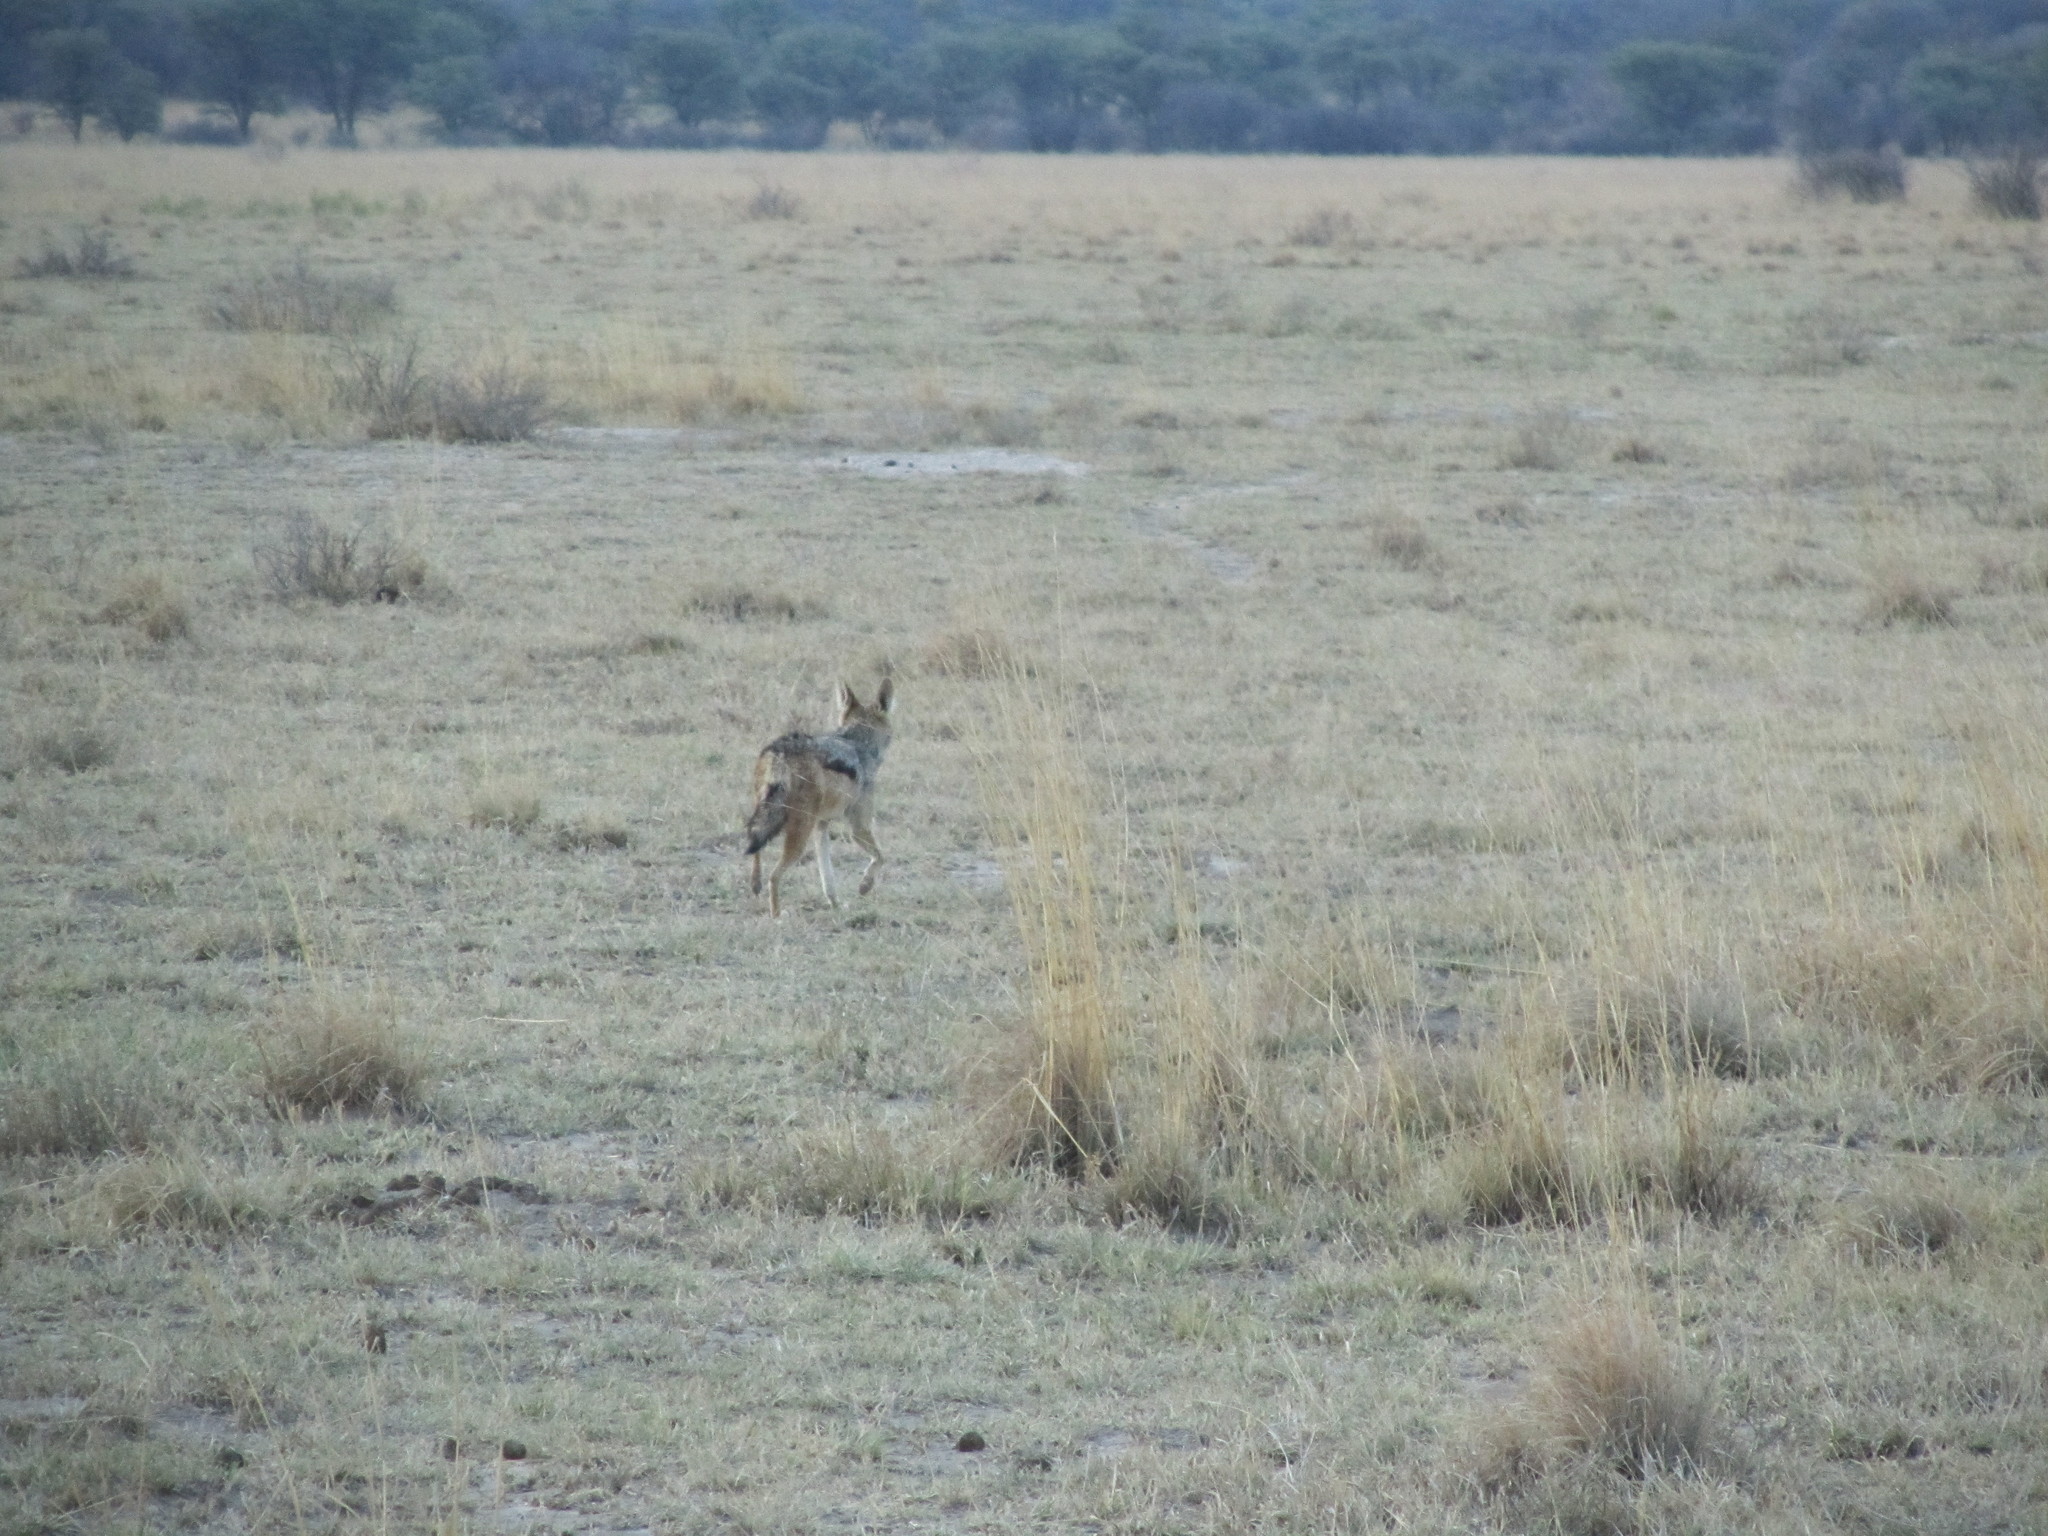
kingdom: Animalia
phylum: Chordata
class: Mammalia
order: Carnivora
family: Canidae
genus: Lupulella
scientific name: Lupulella
